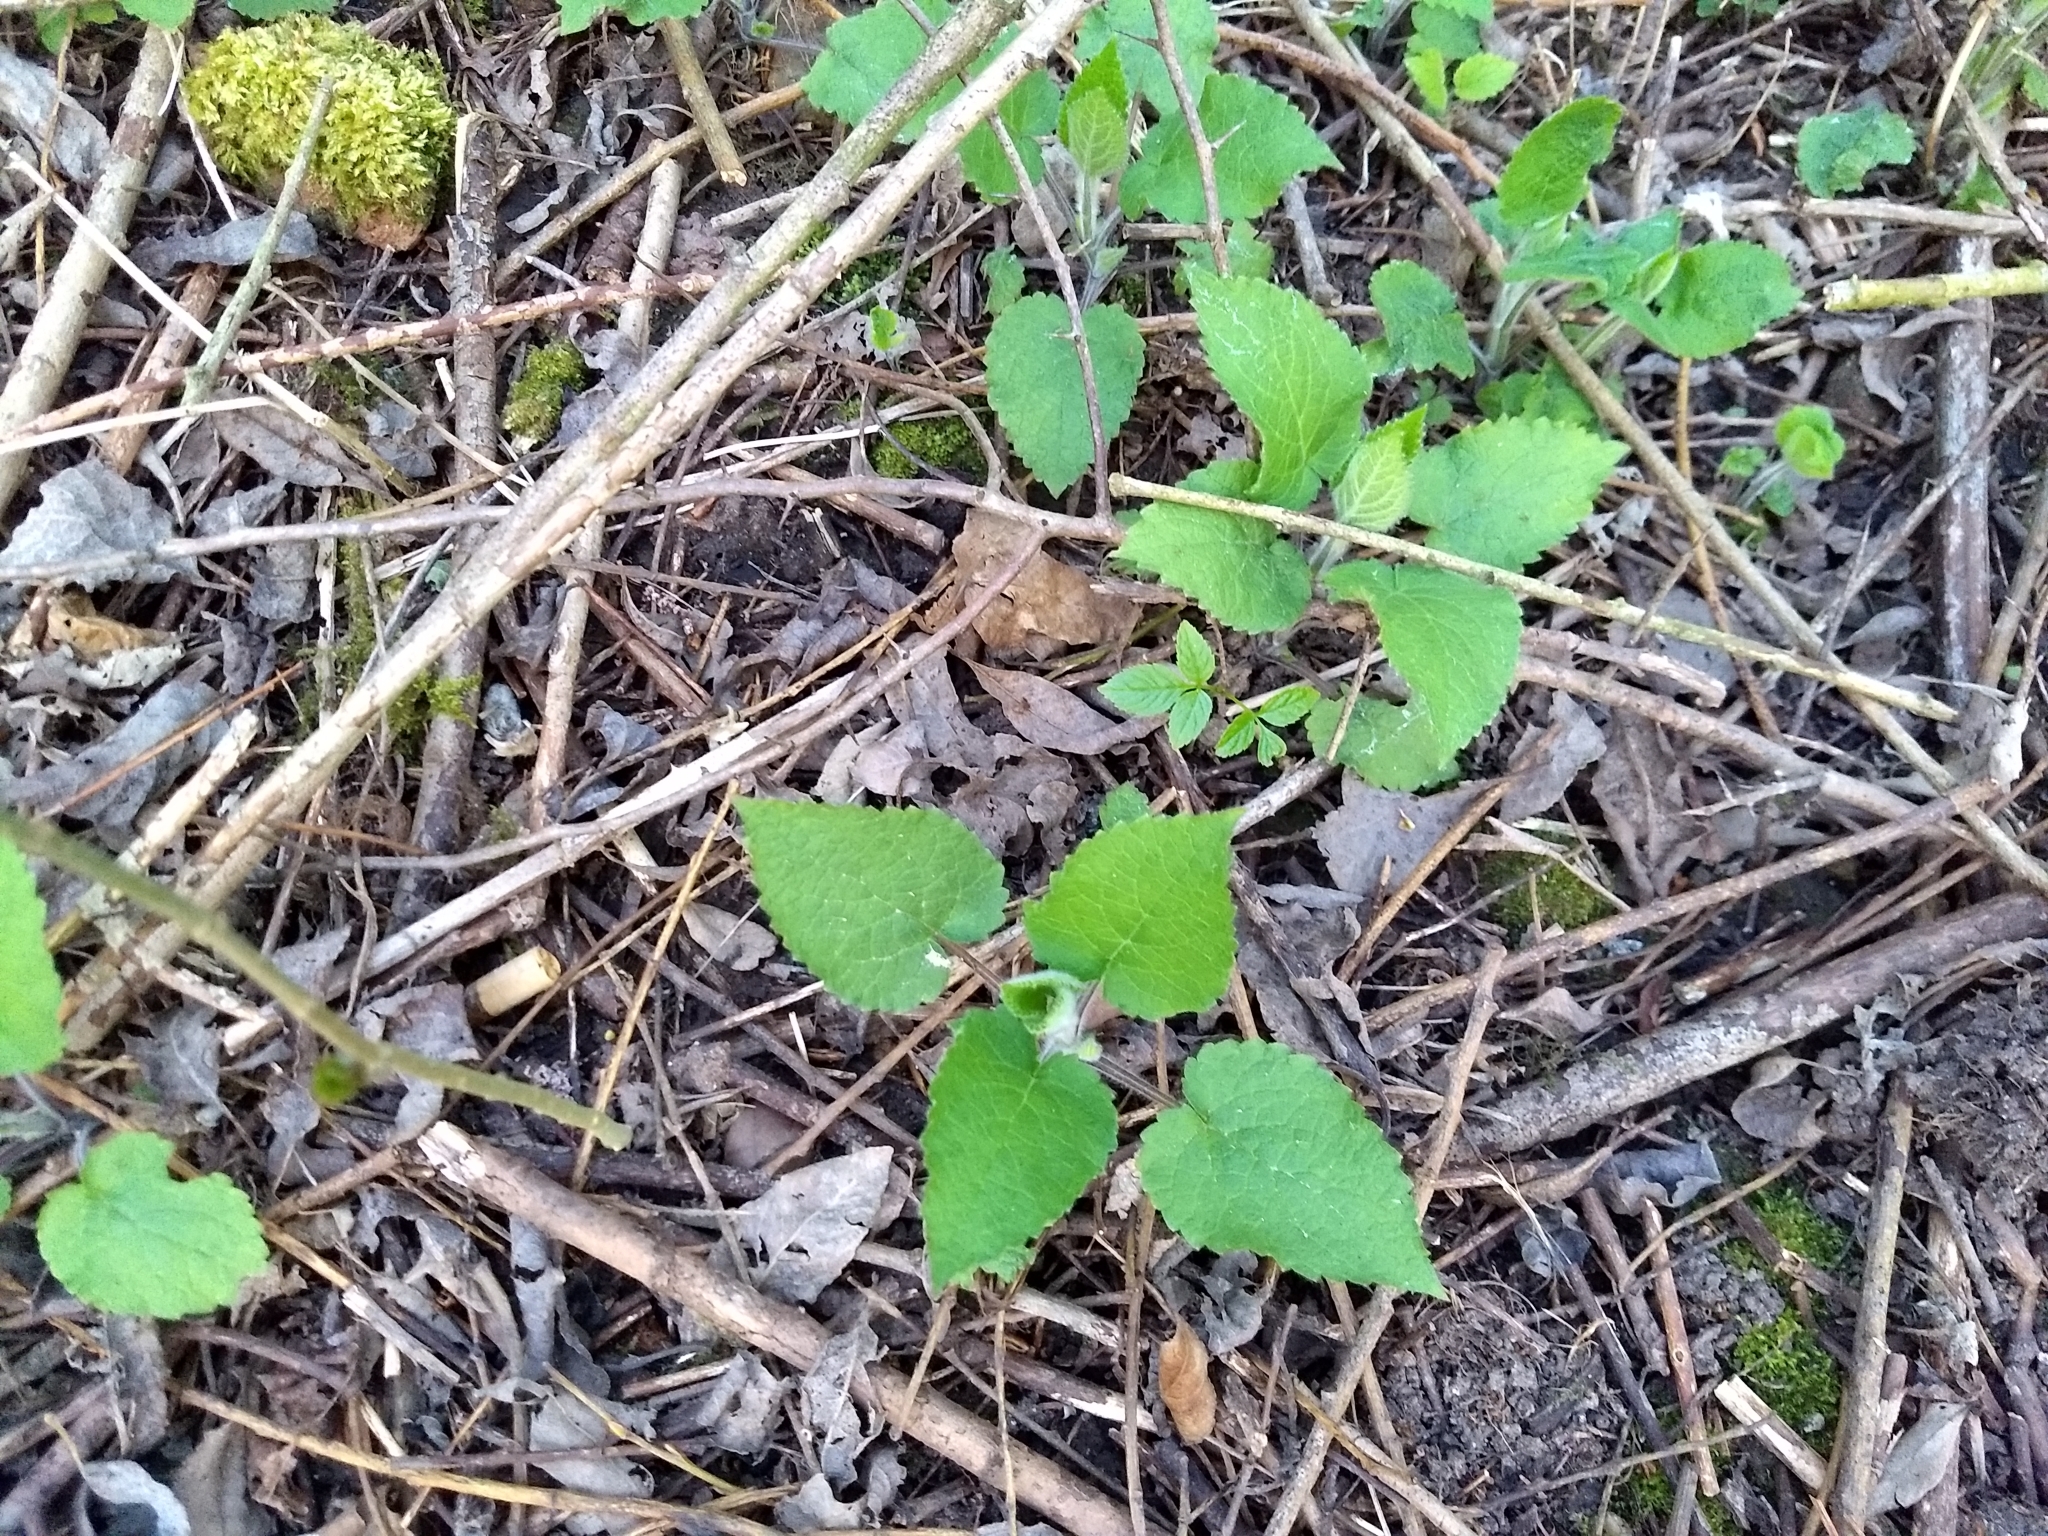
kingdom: Plantae
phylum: Tracheophyta
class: Magnoliopsida
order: Lamiales
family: Lamiaceae
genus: Stachys
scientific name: Stachys sylvatica
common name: Hedge woundwort
